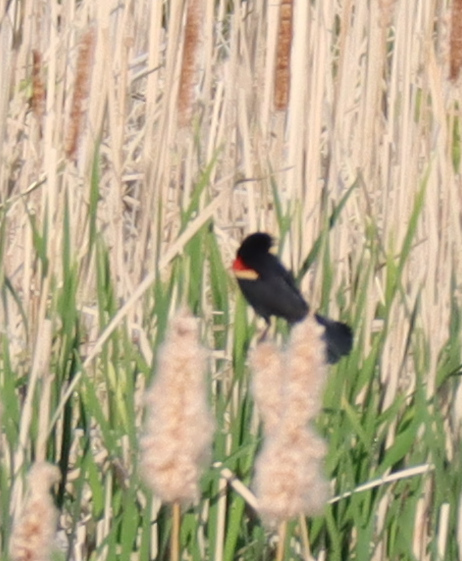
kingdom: Animalia
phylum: Chordata
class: Aves
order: Passeriformes
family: Icteridae
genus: Agelaius
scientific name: Agelaius phoeniceus
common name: Red-winged blackbird
